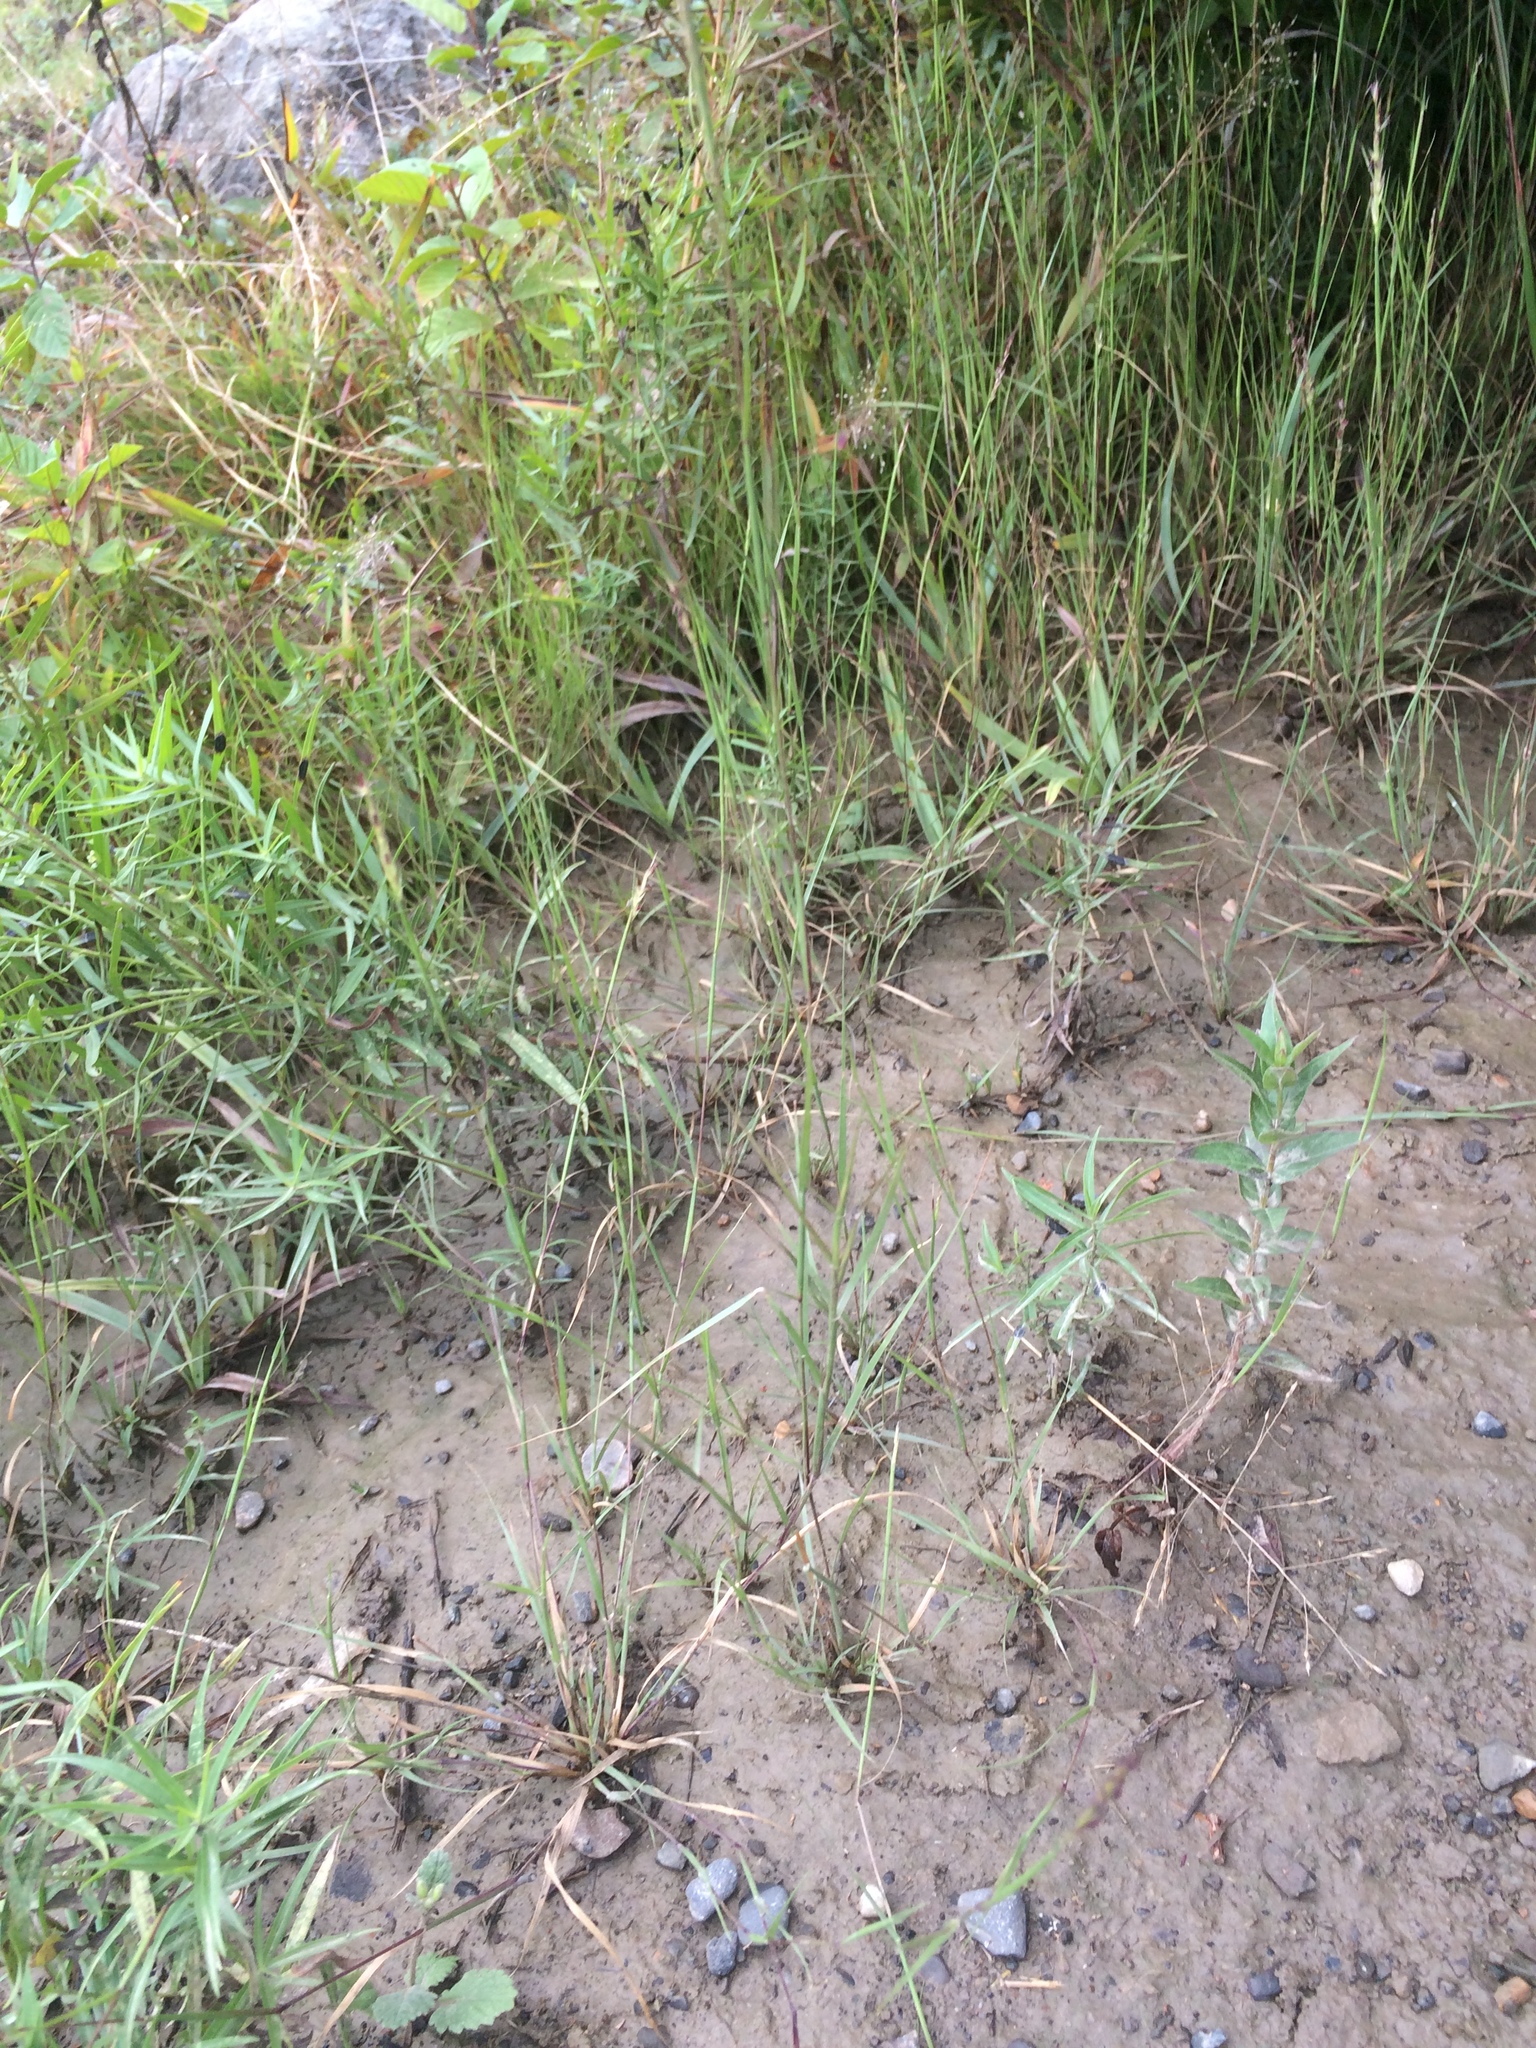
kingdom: Plantae
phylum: Tracheophyta
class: Liliopsida
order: Poales
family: Poaceae
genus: Sporobolus
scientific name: Sporobolus vaginiflorus
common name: Poverty dropseed
